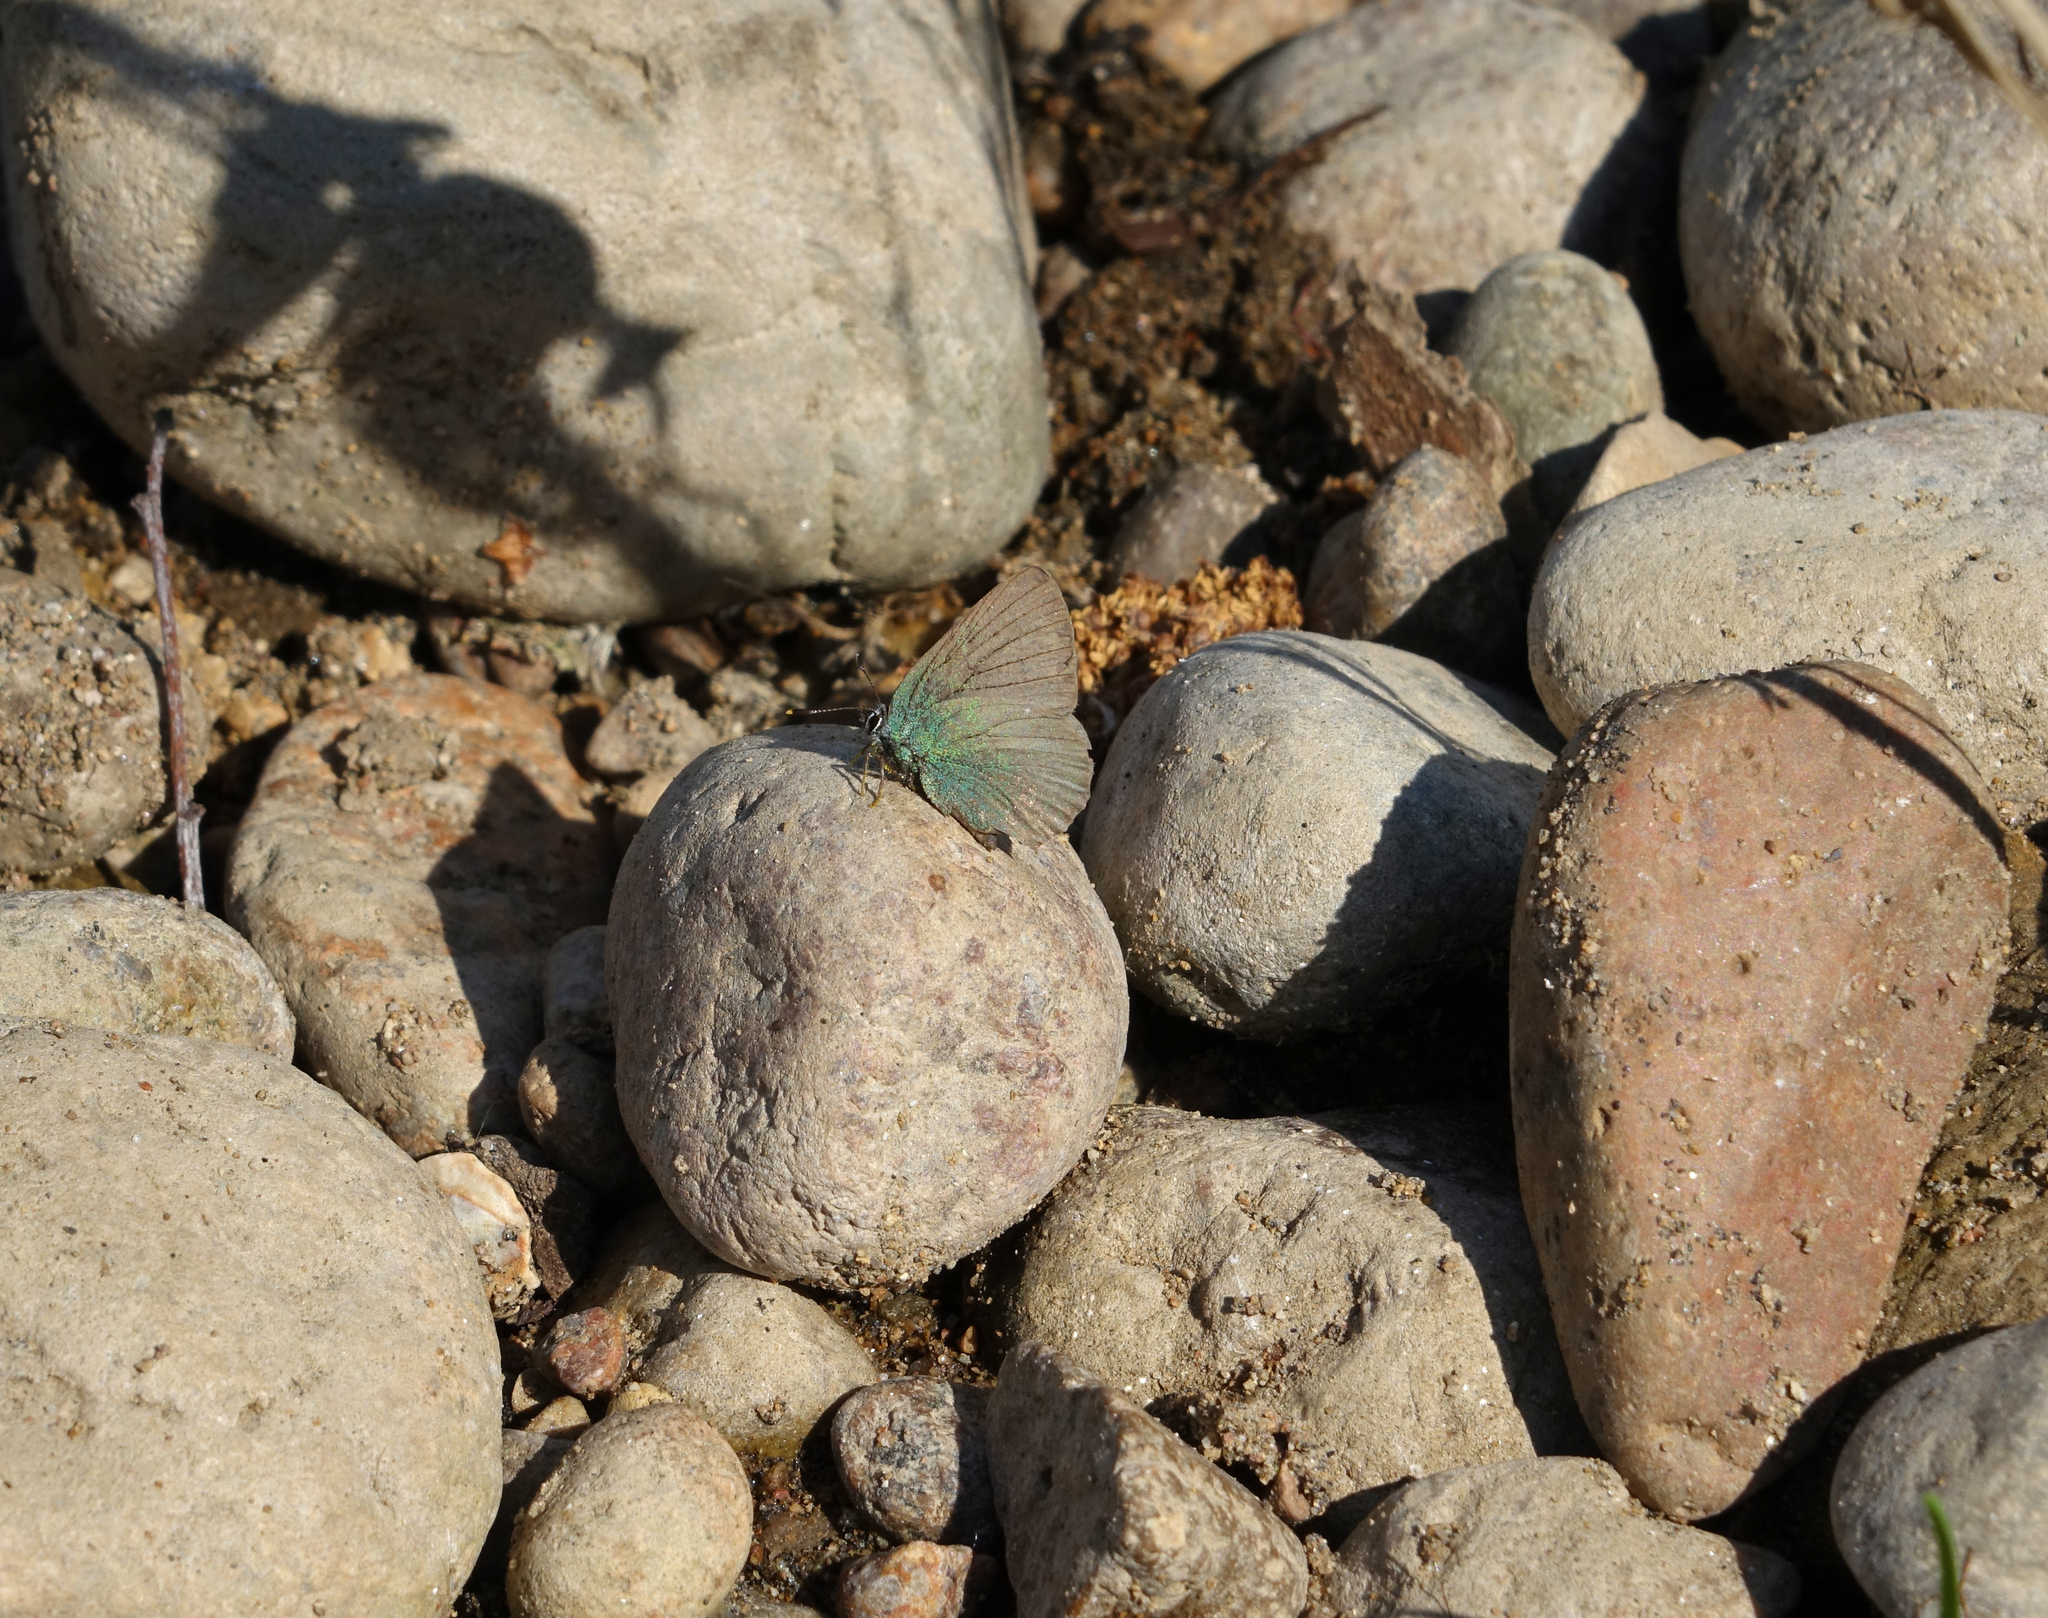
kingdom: Animalia
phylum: Arthropoda
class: Insecta
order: Lepidoptera
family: Lycaenidae
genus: Callophrys
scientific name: Callophrys rubi
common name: Green hairstreak
